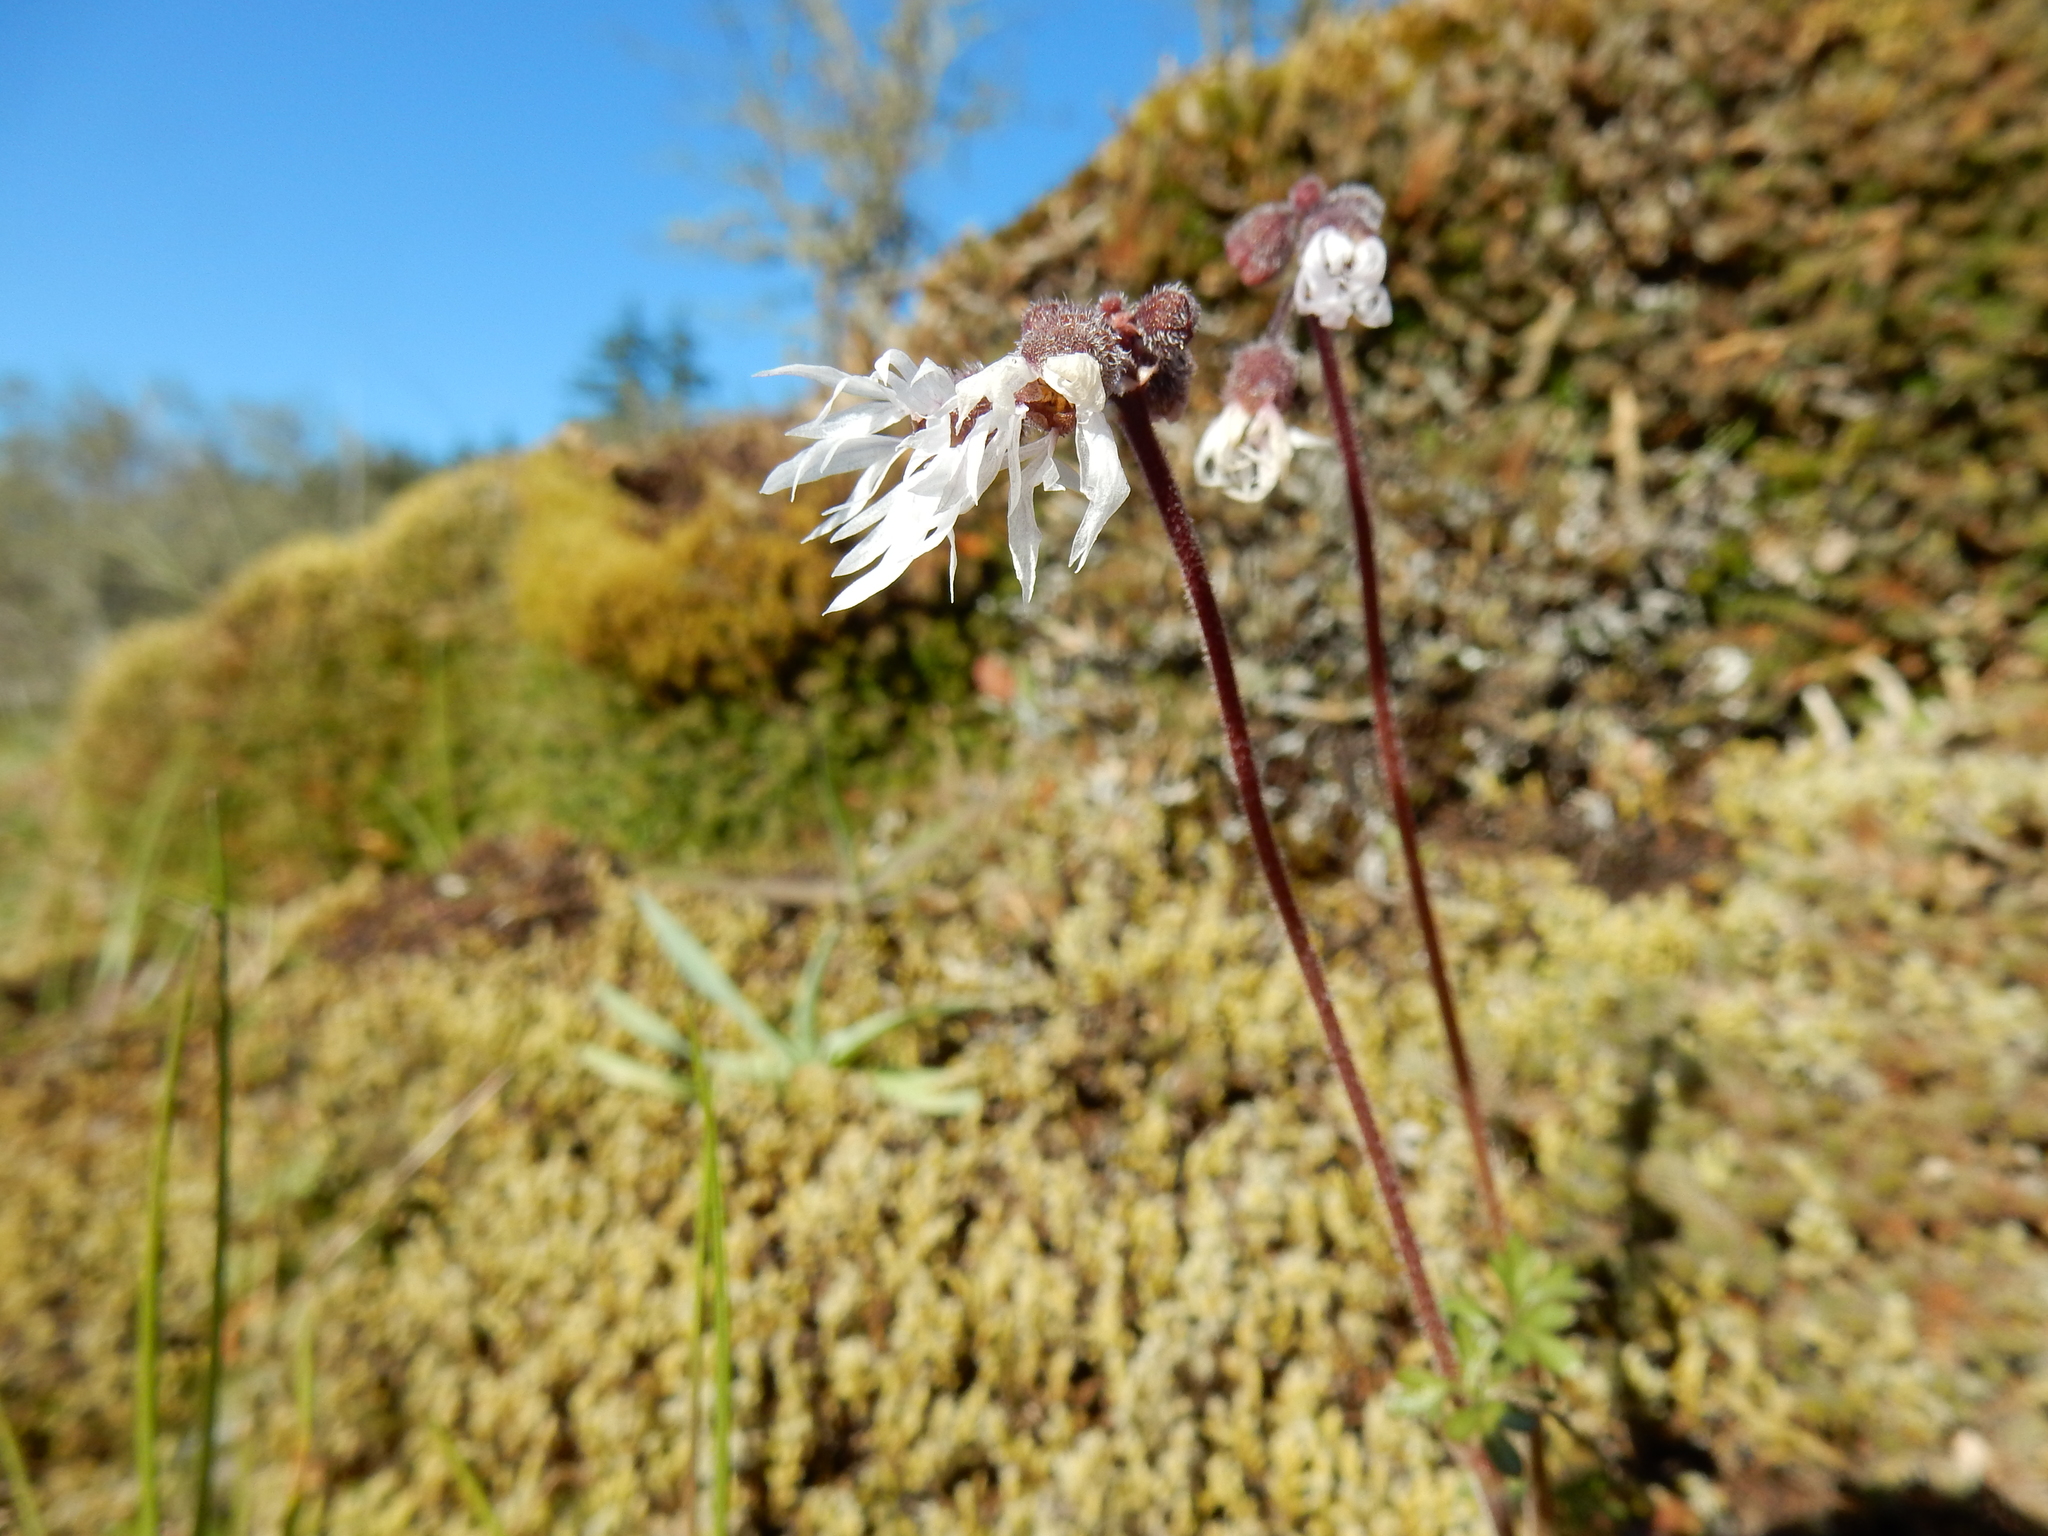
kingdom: Plantae
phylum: Tracheophyta
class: Magnoliopsida
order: Saxifragales
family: Saxifragaceae
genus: Lithophragma
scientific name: Lithophragma glabrum
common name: Bulbous prairie-star
